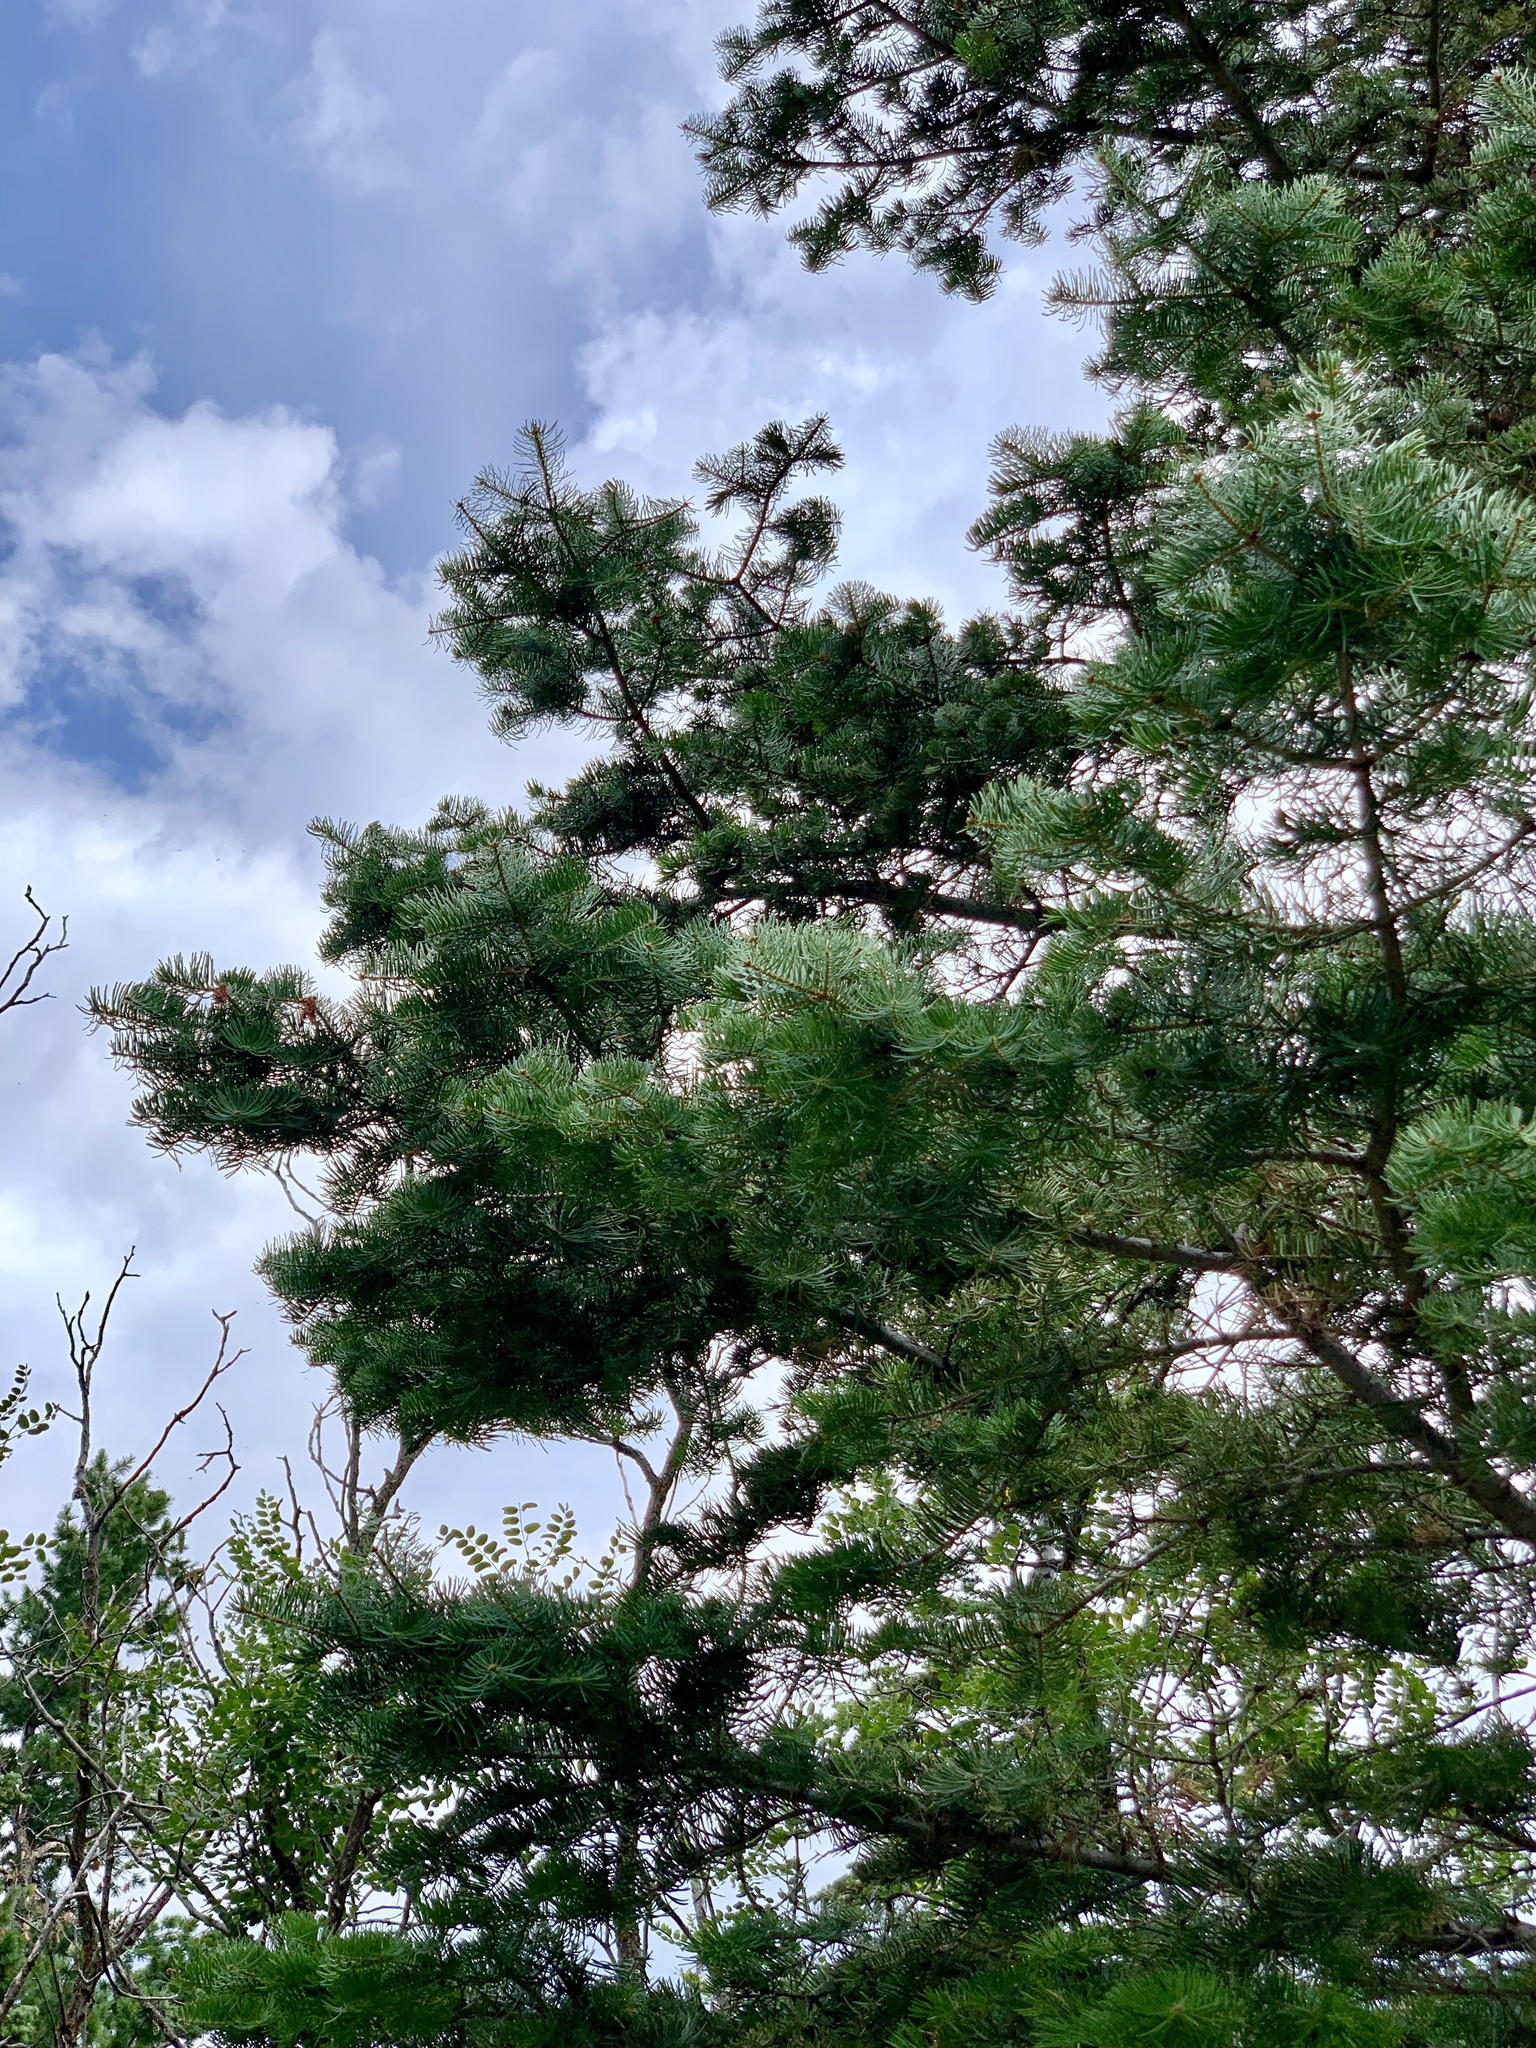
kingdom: Plantae
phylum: Tracheophyta
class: Pinopsida
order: Pinales
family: Pinaceae
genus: Abies
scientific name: Abies concolor
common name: Colorado fir
